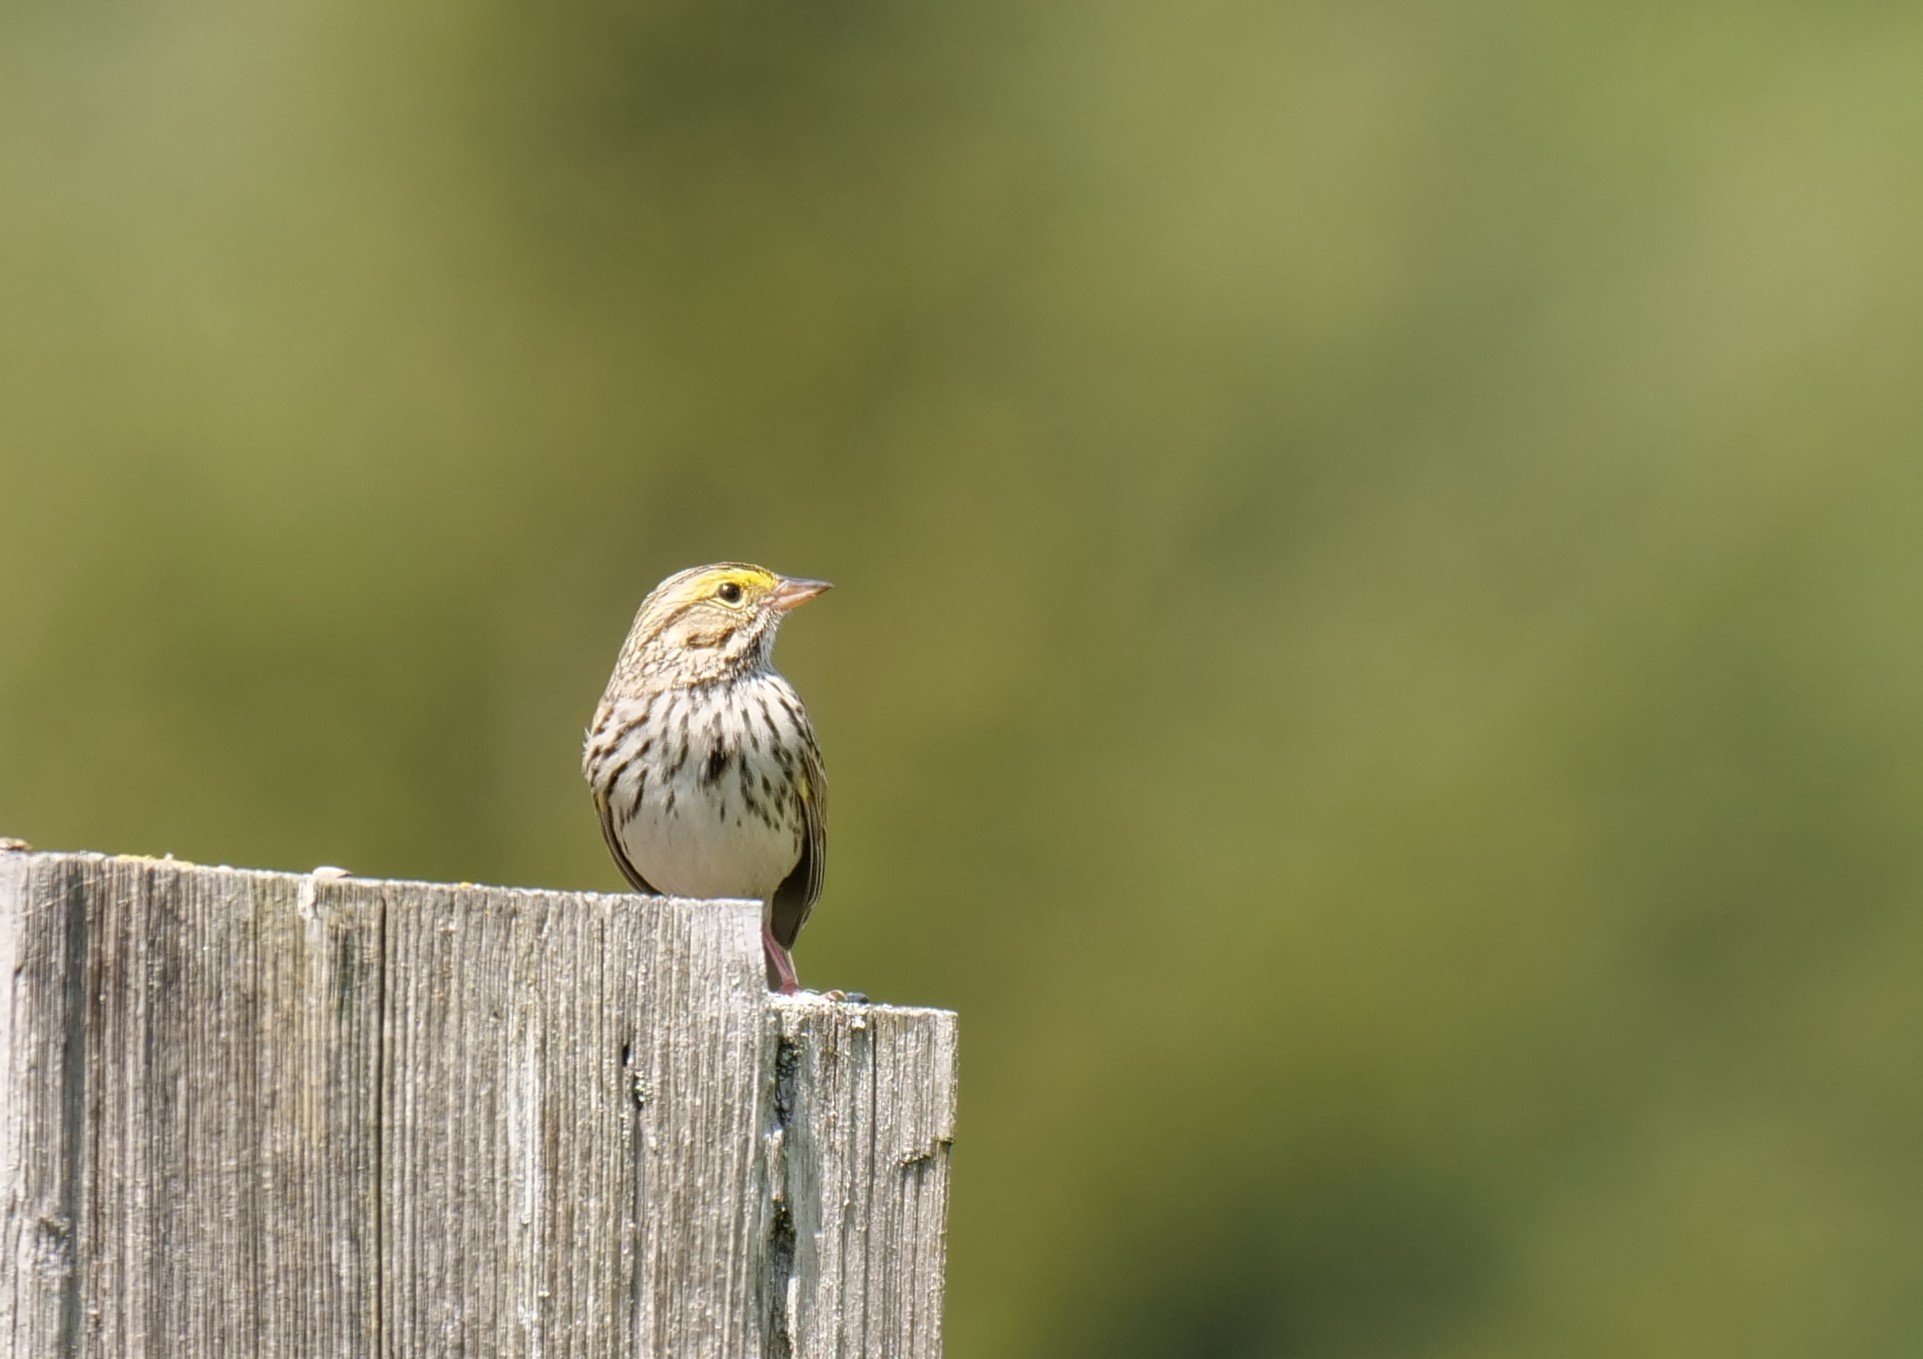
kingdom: Animalia
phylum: Chordata
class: Aves
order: Passeriformes
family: Passerellidae
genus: Passerculus
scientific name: Passerculus sandwichensis
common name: Savannah sparrow
